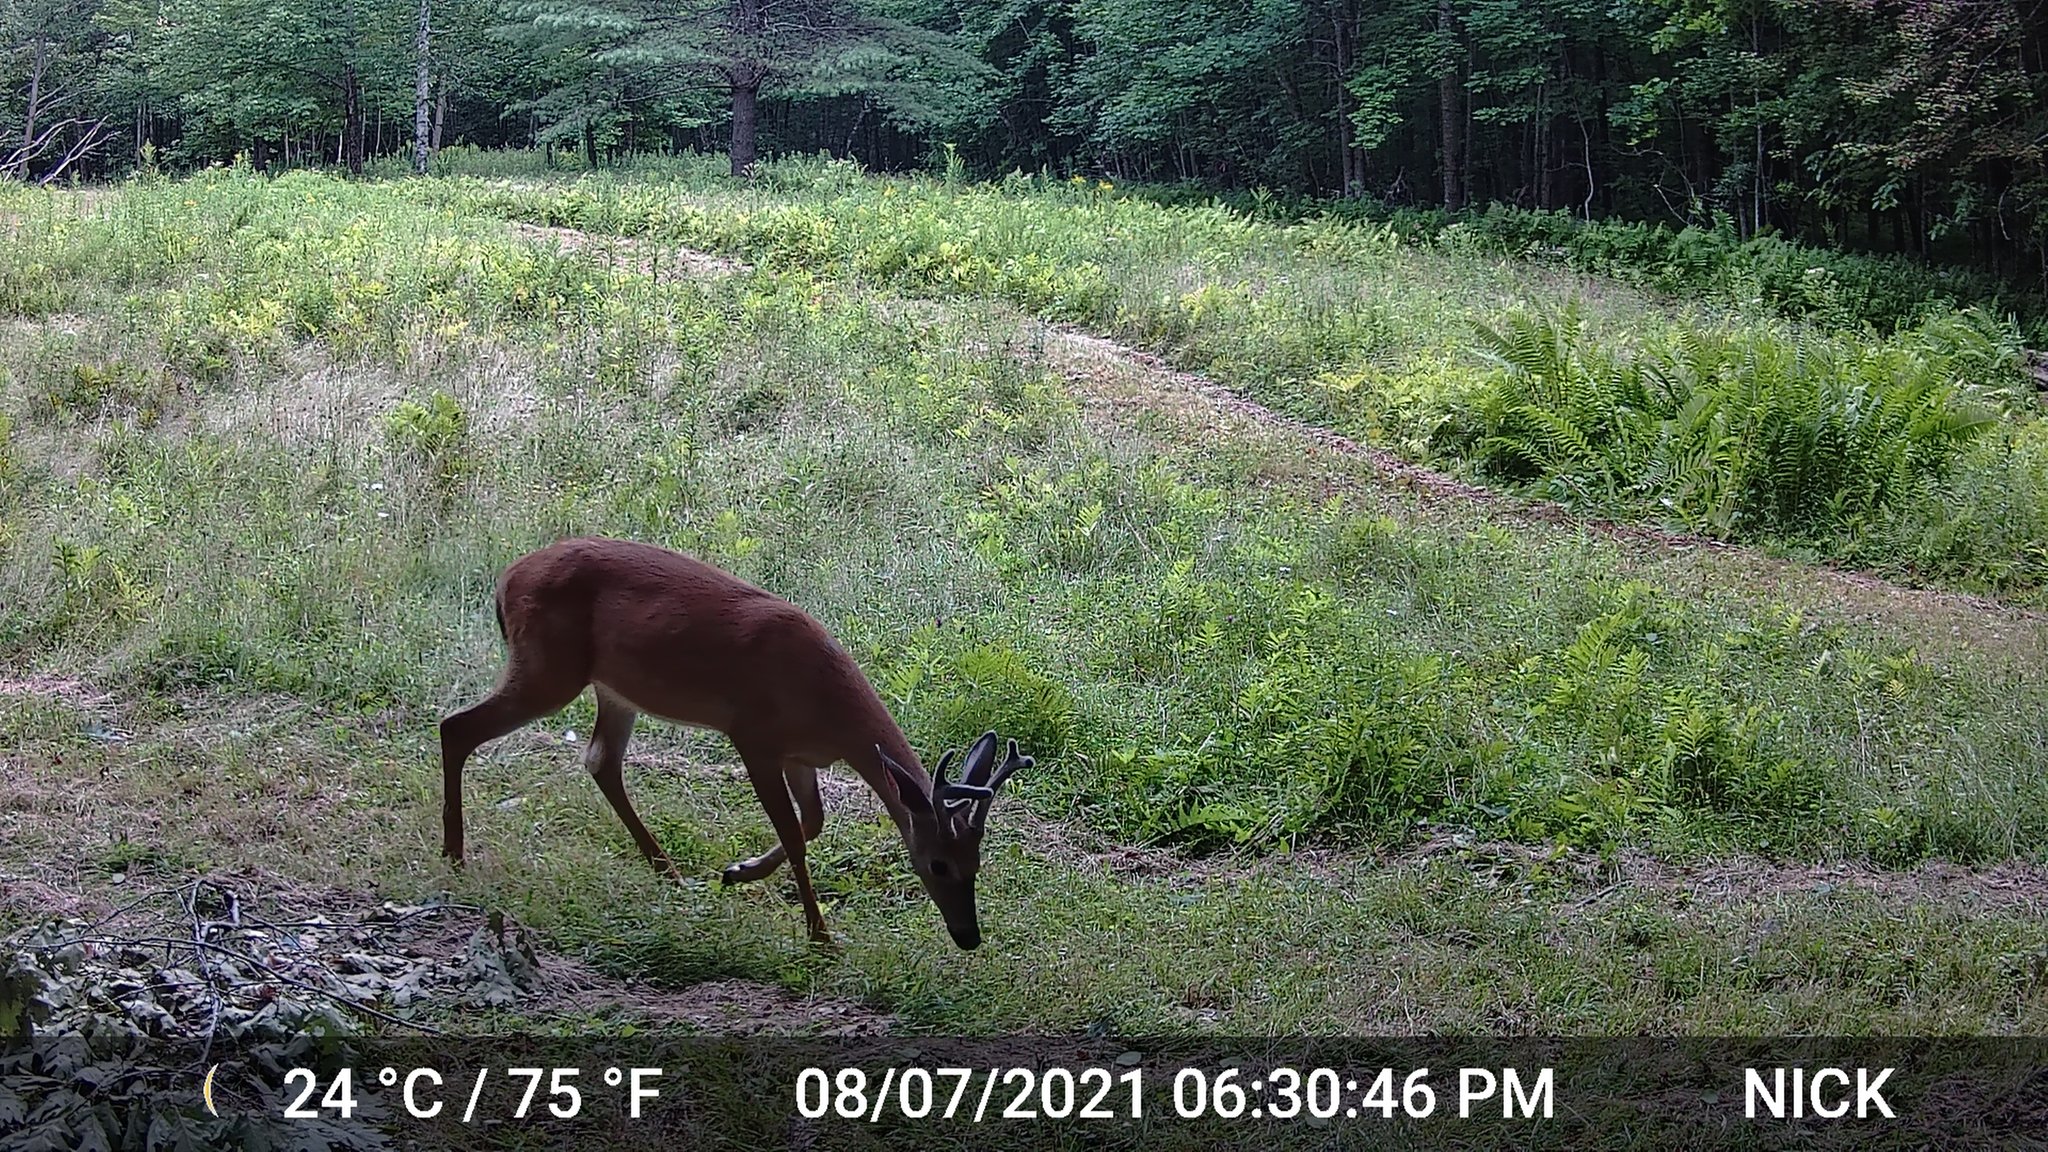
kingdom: Animalia
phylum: Chordata
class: Mammalia
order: Artiodactyla
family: Cervidae
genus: Odocoileus
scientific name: Odocoileus virginianus
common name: White-tailed deer
